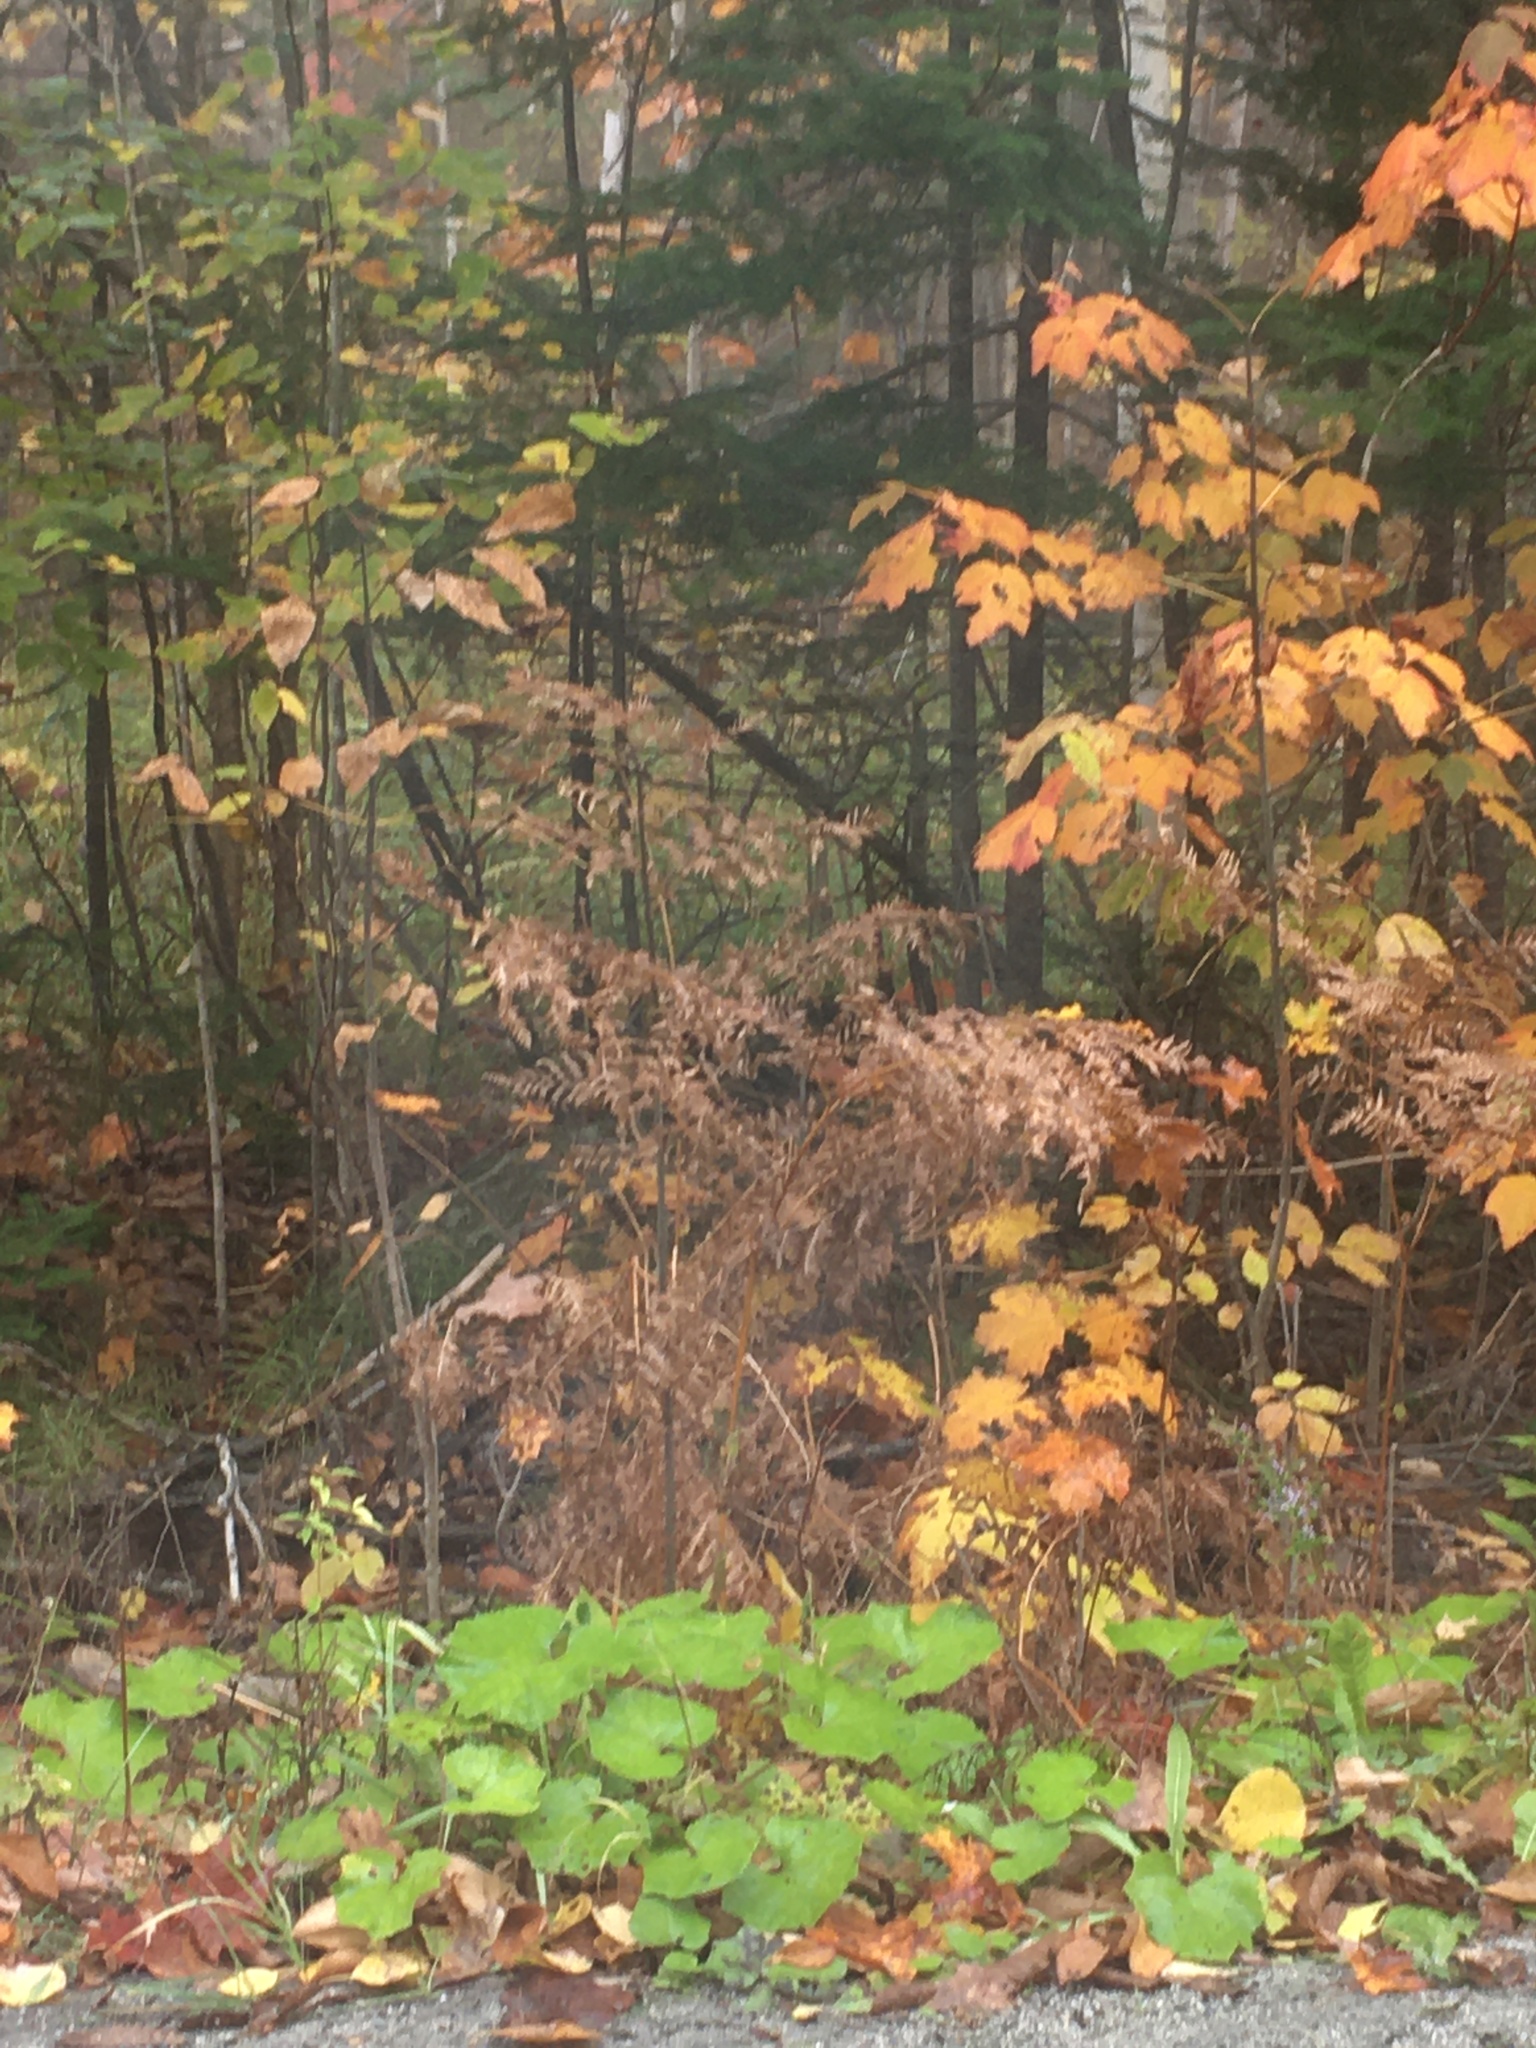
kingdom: Plantae
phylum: Tracheophyta
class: Magnoliopsida
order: Asterales
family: Asteraceae
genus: Tussilago
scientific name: Tussilago farfara
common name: Coltsfoot
